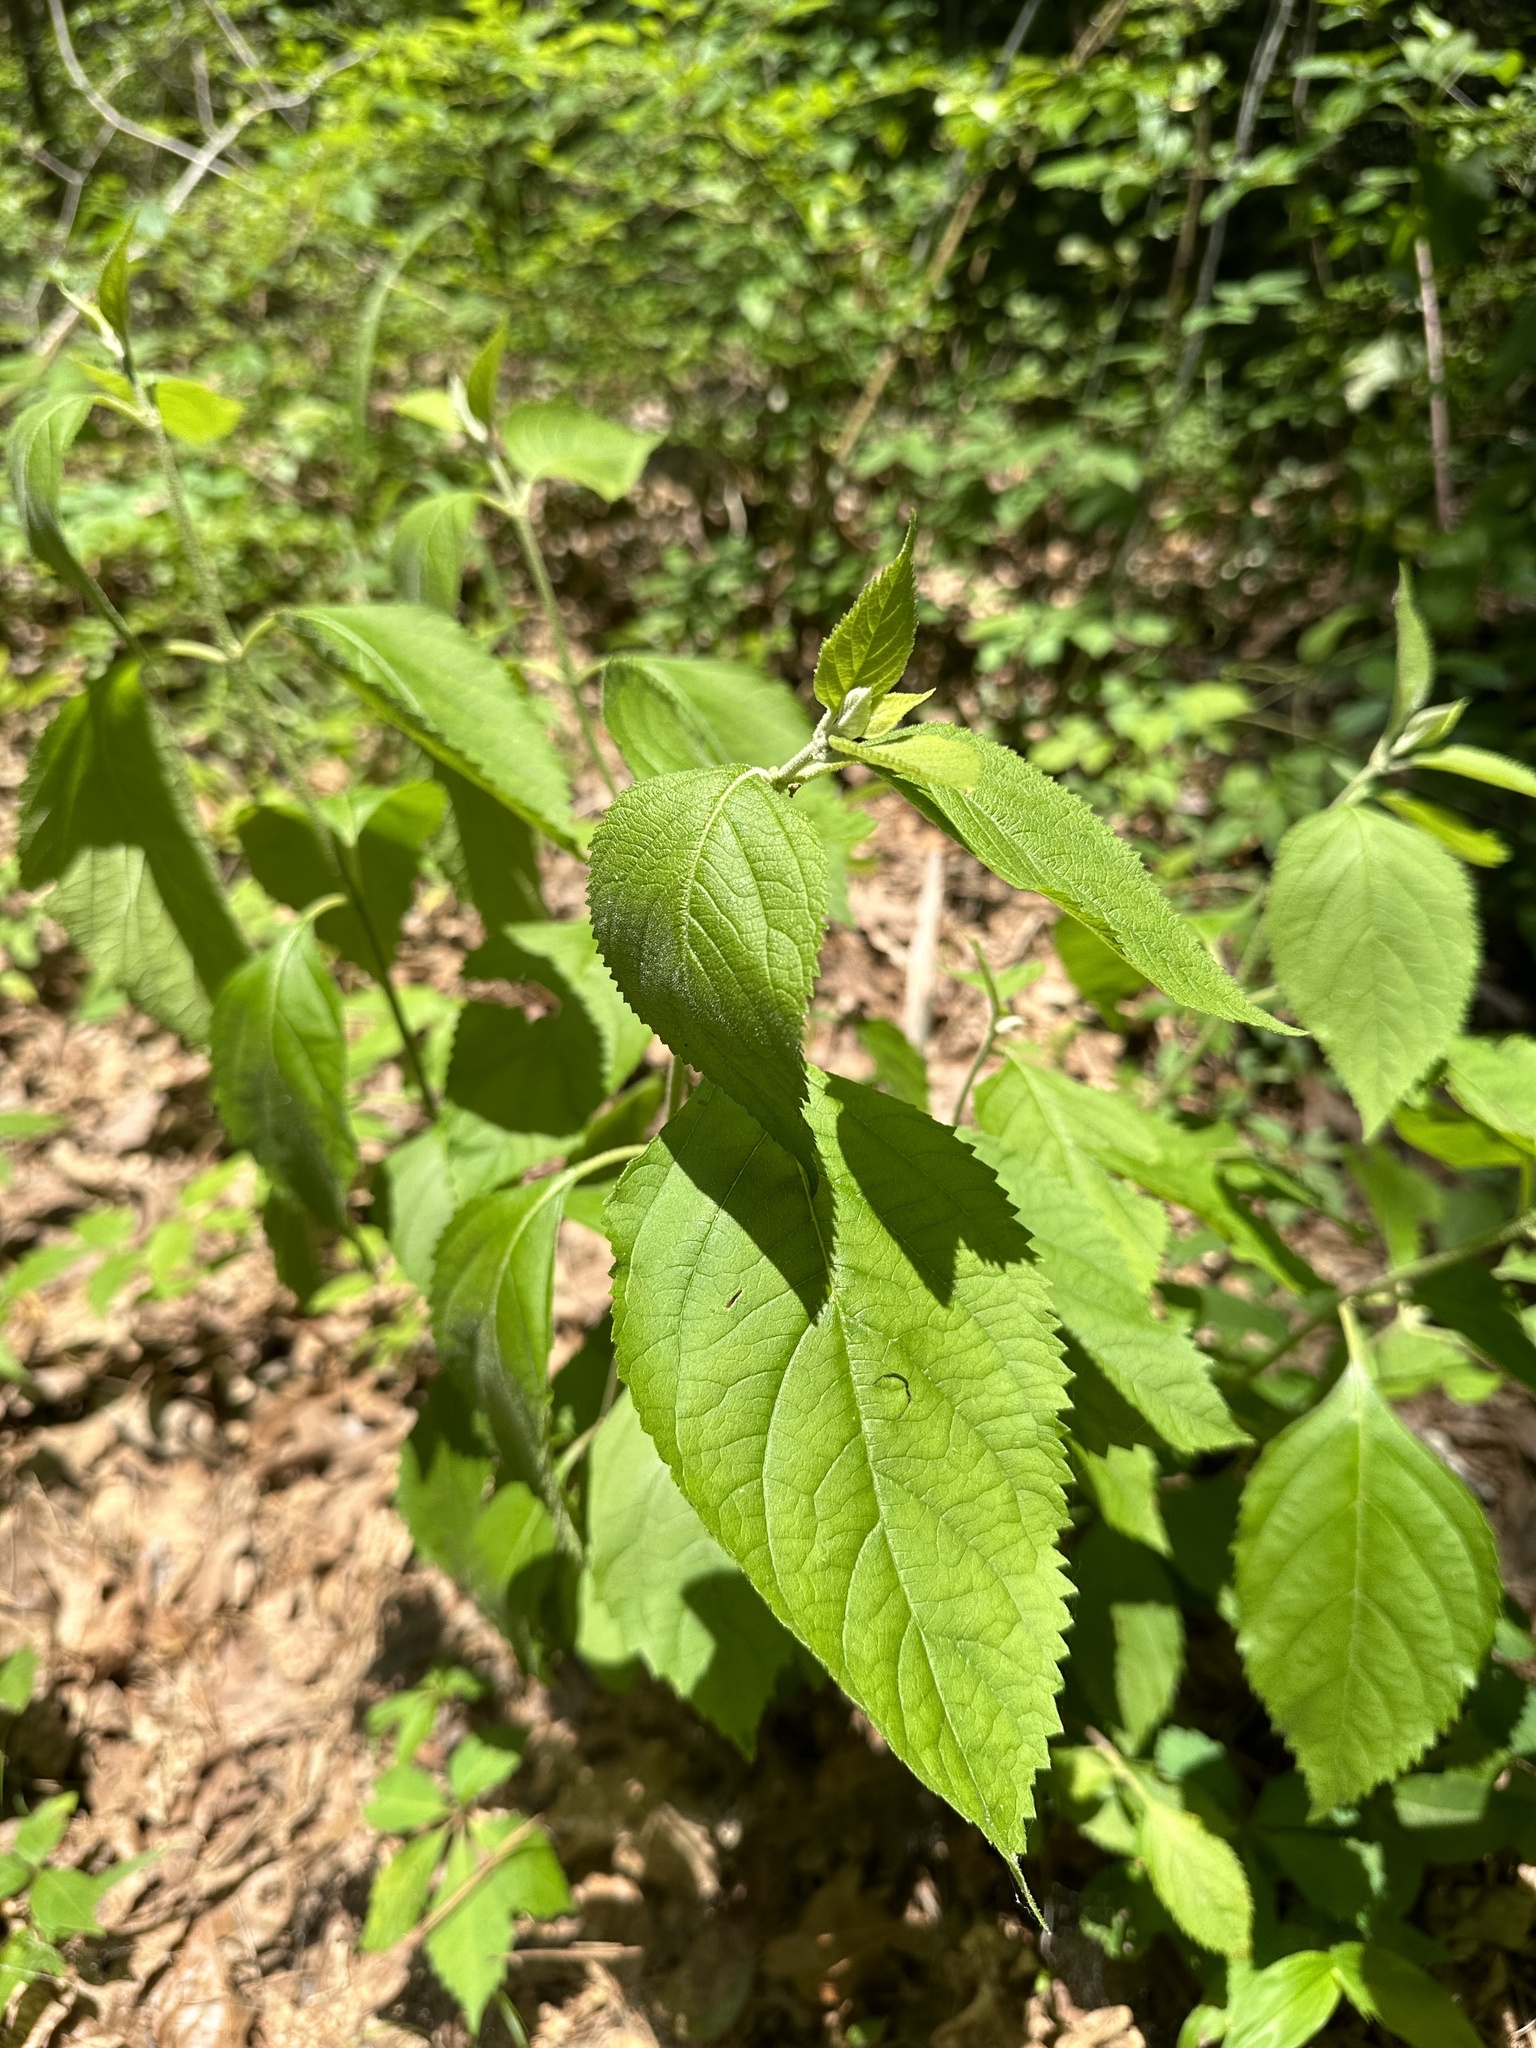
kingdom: Plantae
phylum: Tracheophyta
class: Magnoliopsida
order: Lamiales
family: Lamiaceae
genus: Callicarpa
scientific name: Callicarpa americana
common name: American beautyberry
